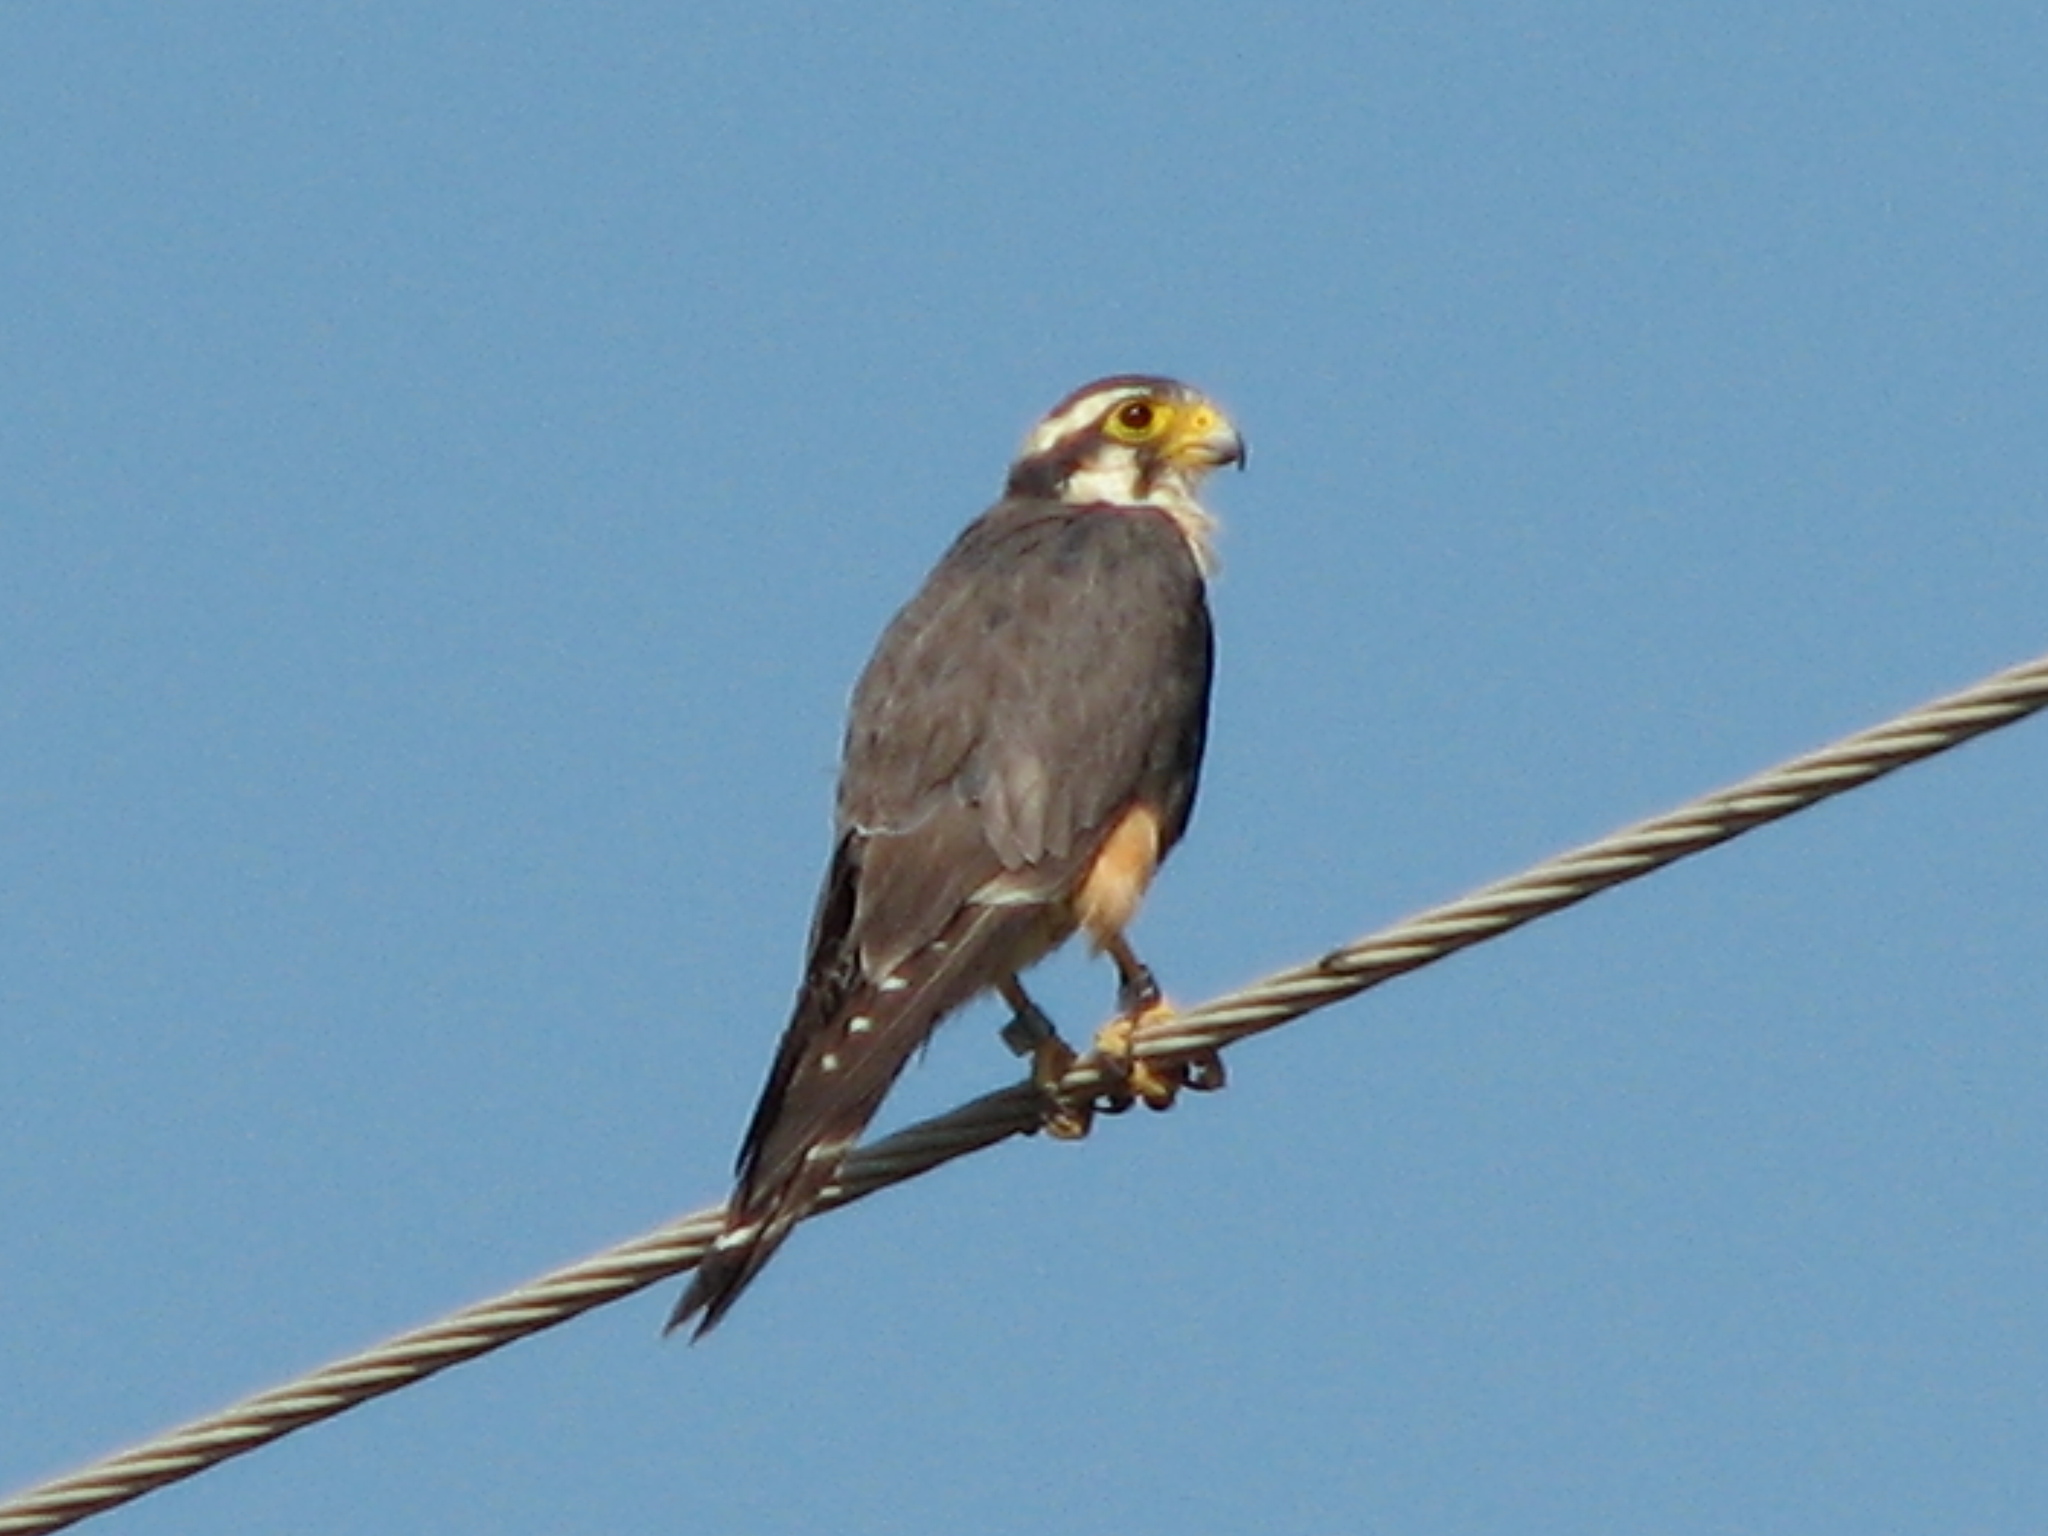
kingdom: Animalia
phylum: Chordata
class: Aves
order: Falconiformes
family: Falconidae
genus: Falco
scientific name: Falco femoralis
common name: Aplomado falcon
